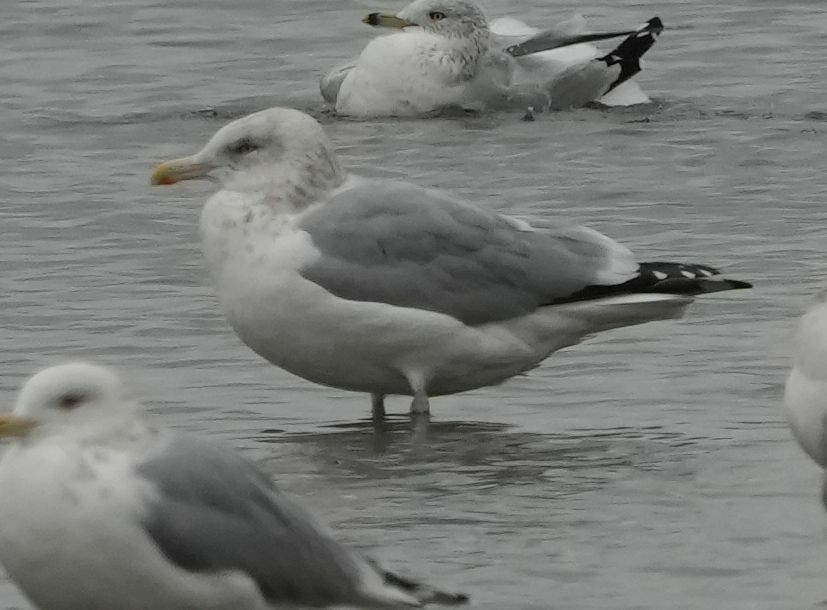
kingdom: Animalia
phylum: Chordata
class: Aves
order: Charadriiformes
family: Laridae
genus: Larus
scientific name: Larus argentatus
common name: Herring gull
